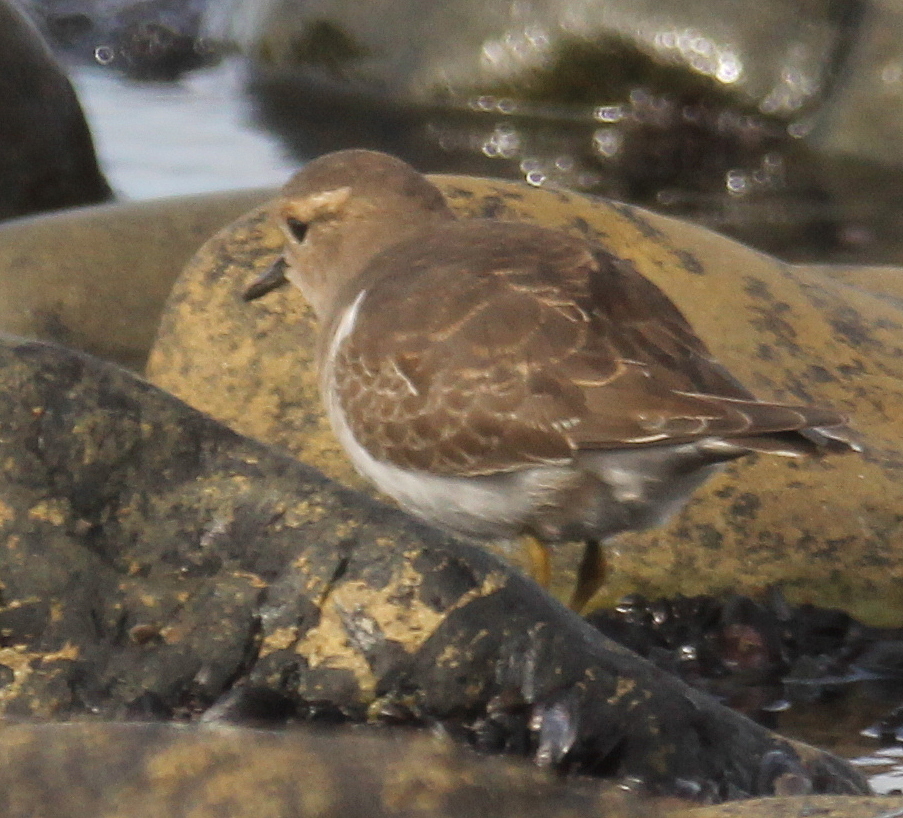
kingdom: Animalia
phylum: Chordata
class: Aves
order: Charadriiformes
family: Charadriidae
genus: Charadrius
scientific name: Charadrius modestus
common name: Rufous-chested plover
